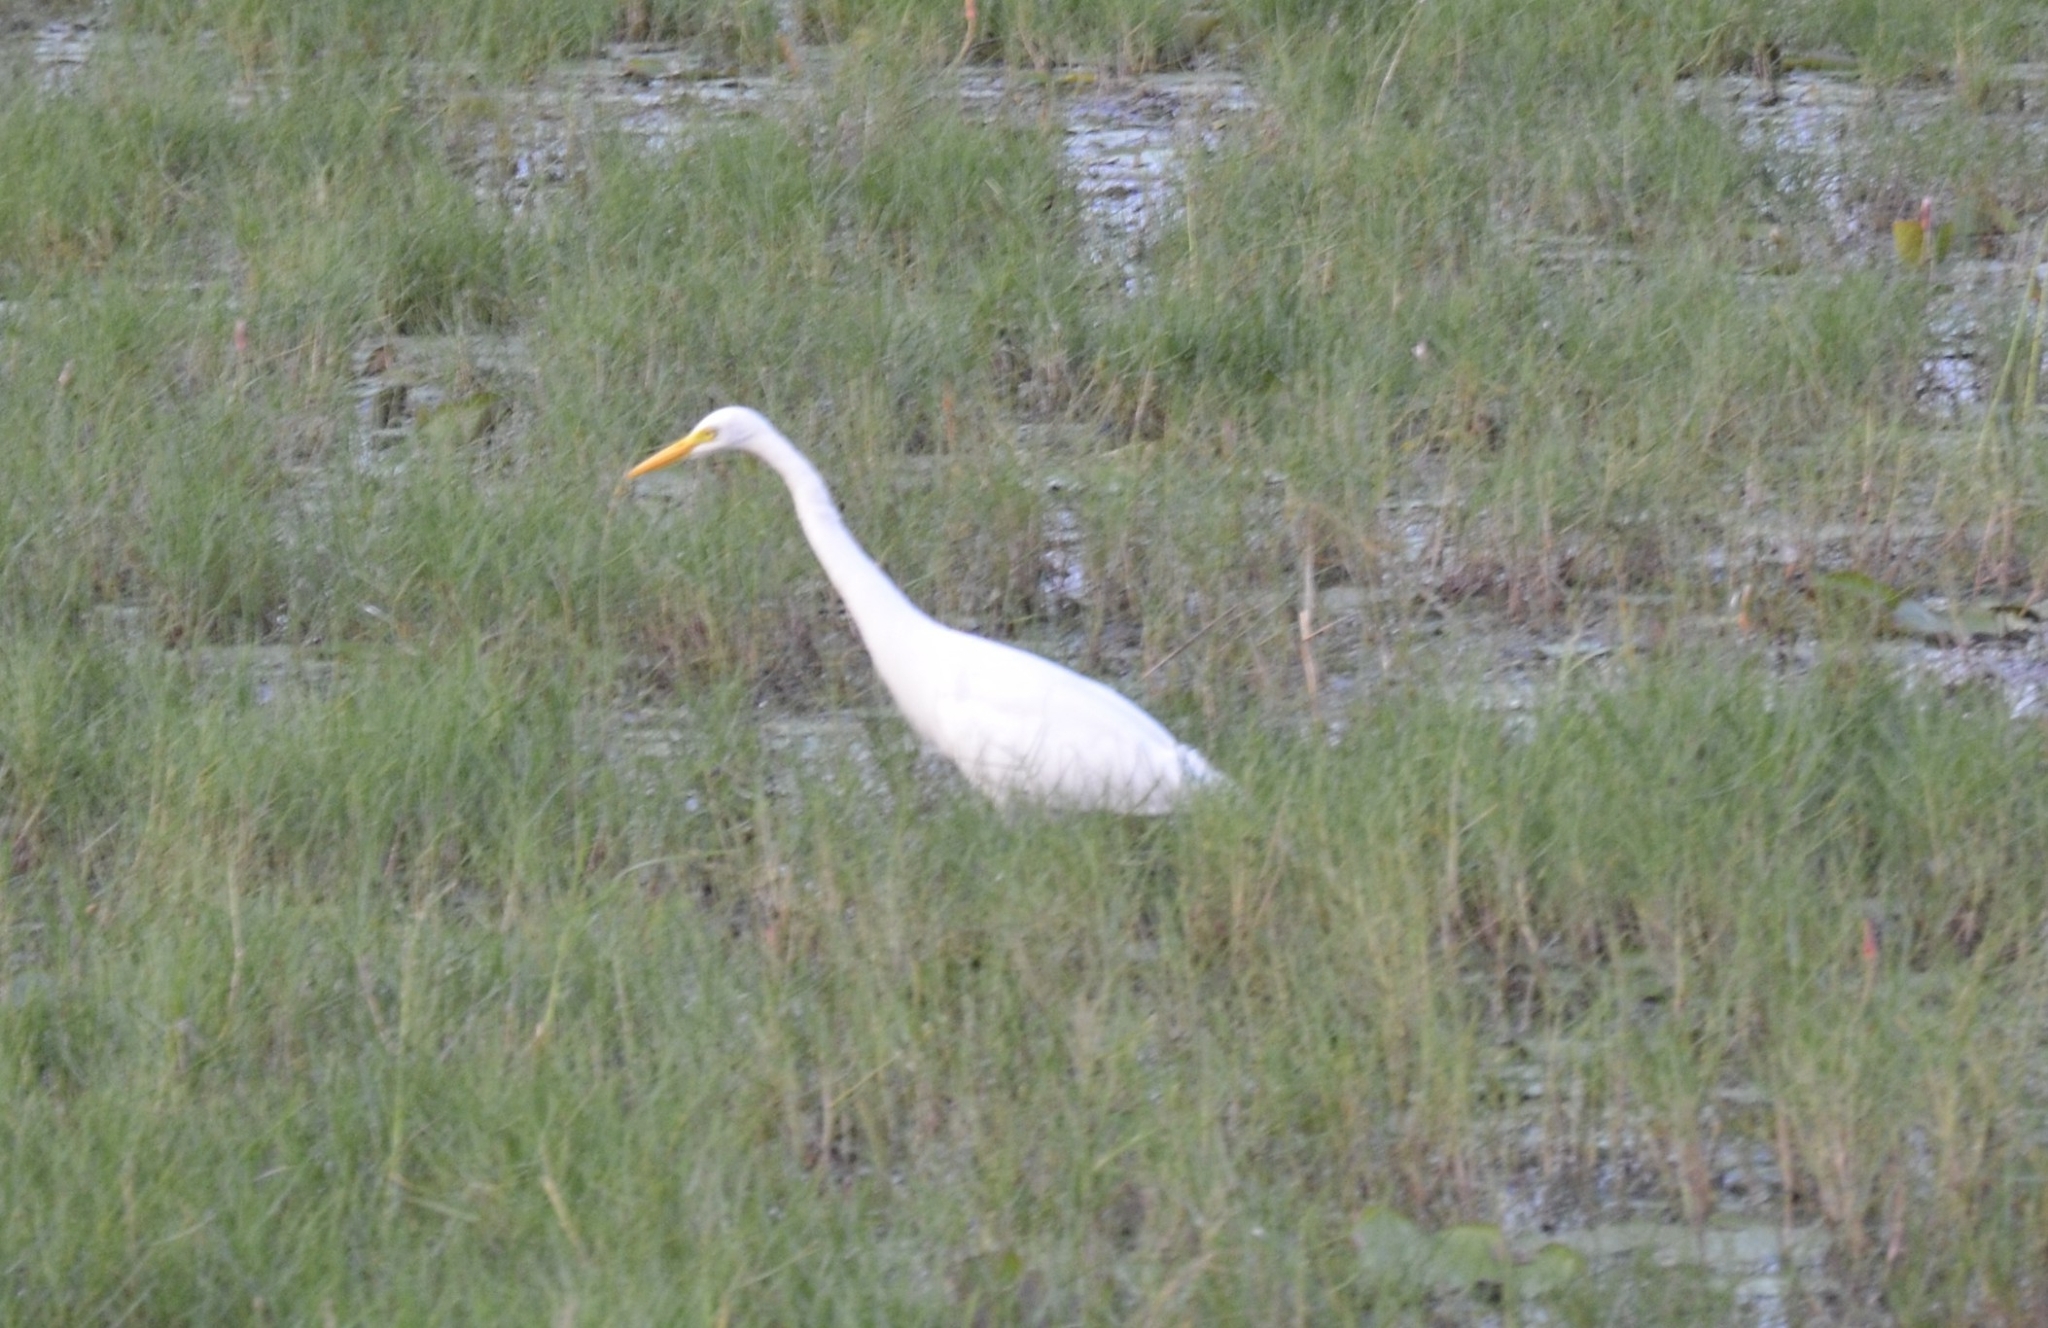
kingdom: Animalia
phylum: Chordata
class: Aves
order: Pelecaniformes
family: Ardeidae
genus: Egretta
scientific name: Egretta intermedia
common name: Intermediate egret
